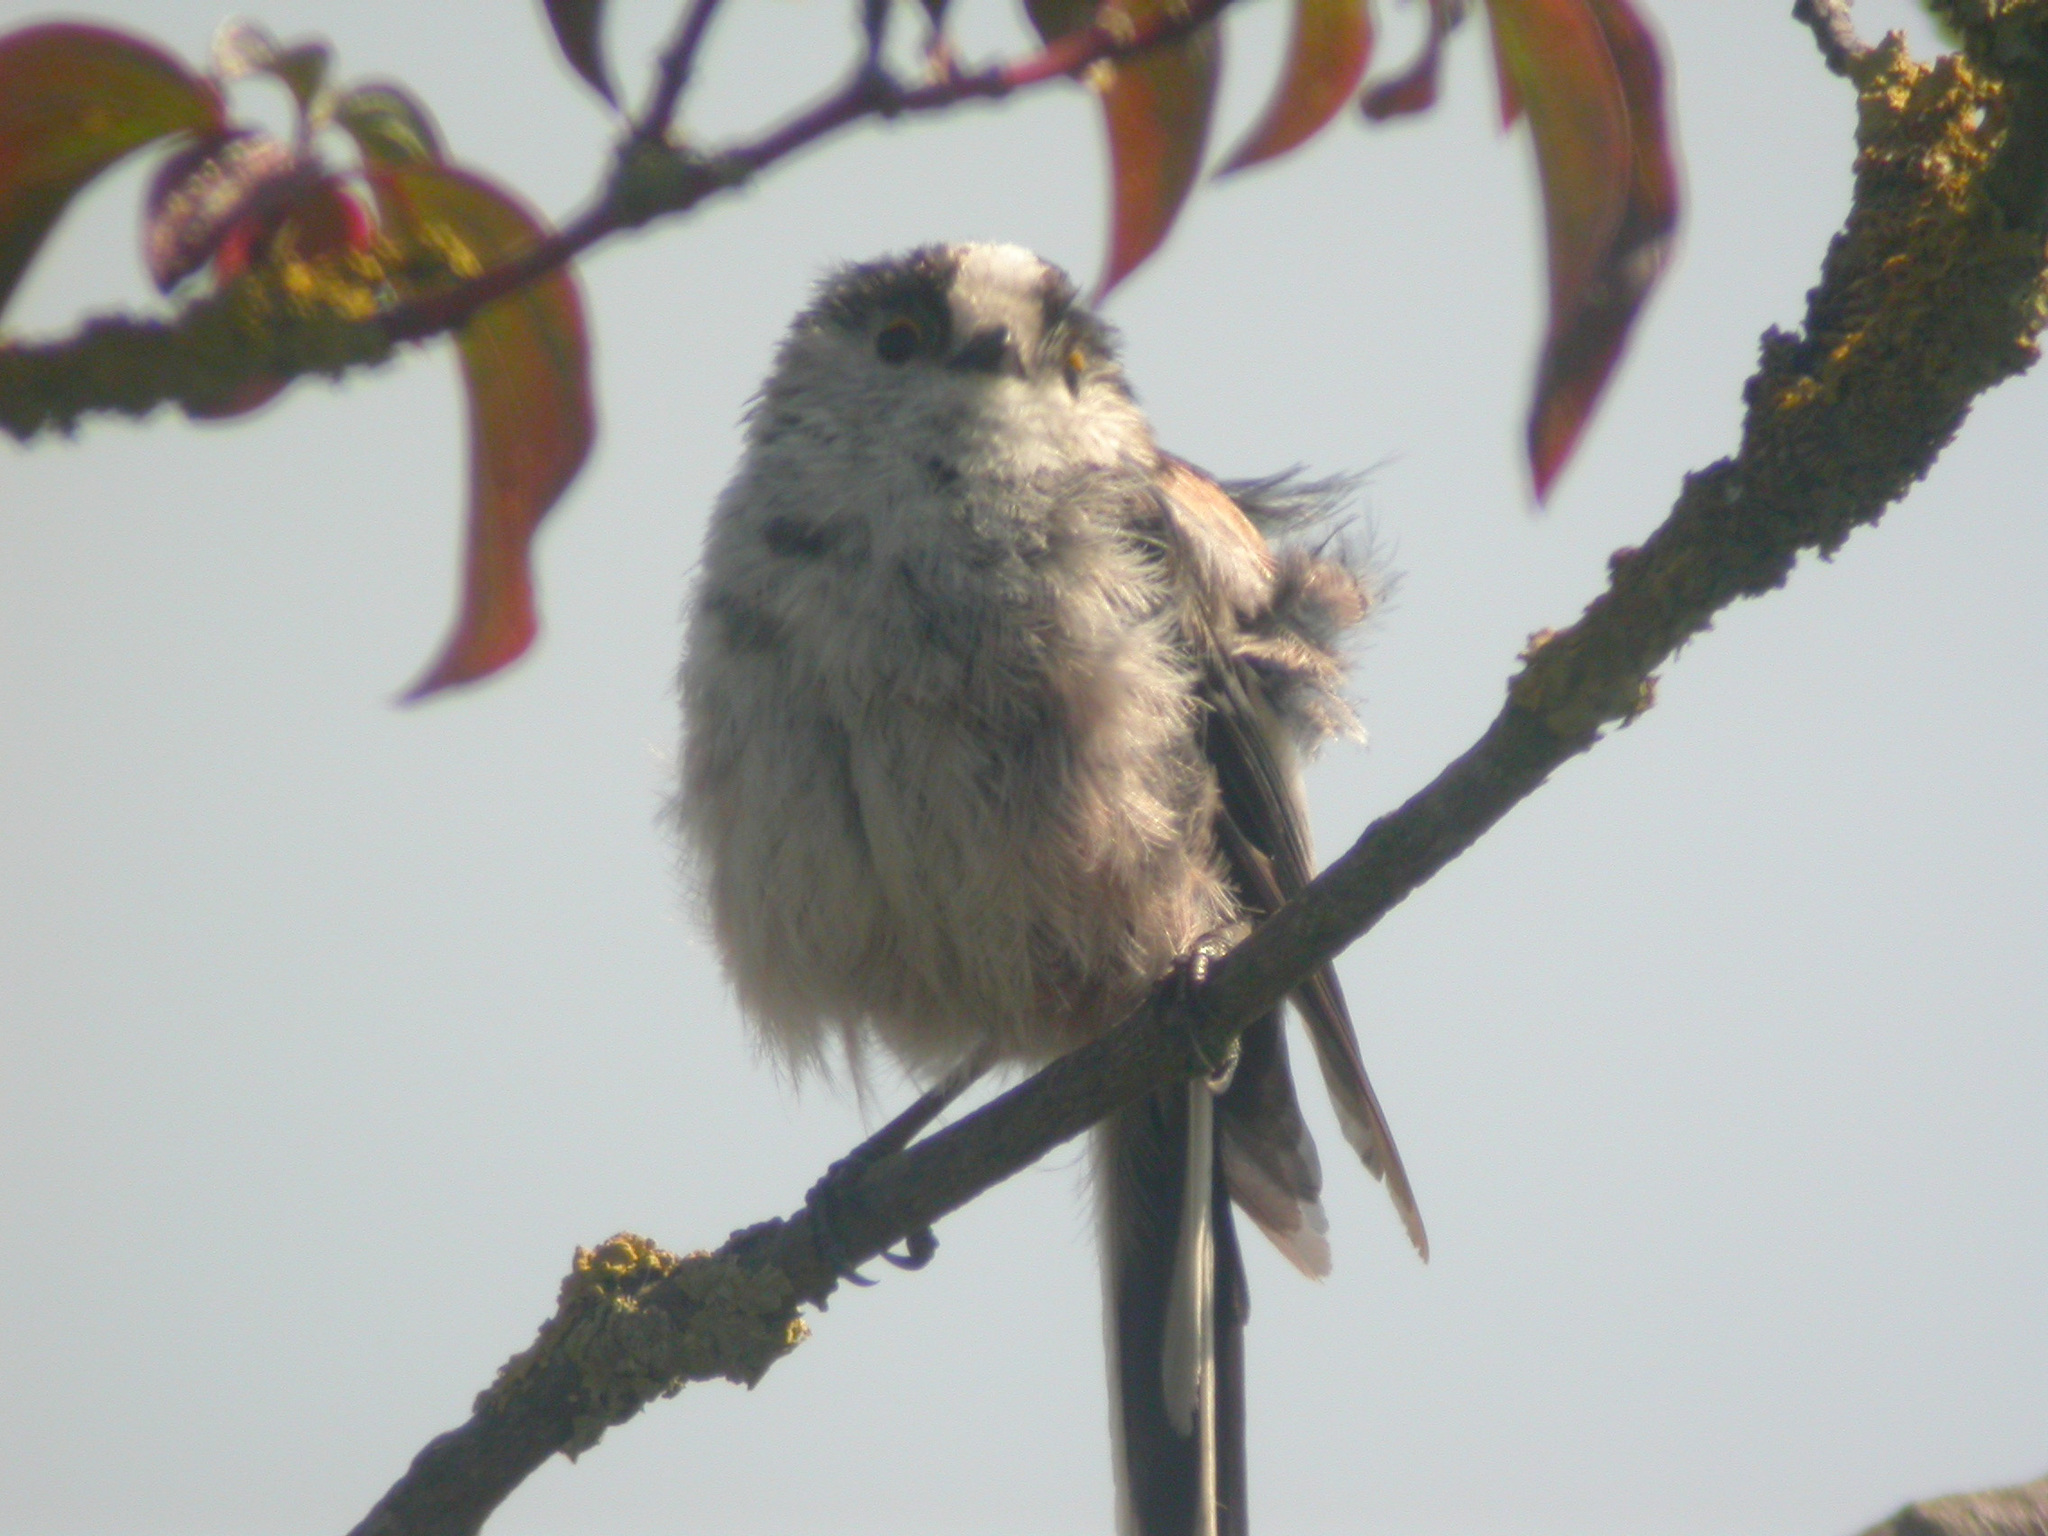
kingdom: Animalia
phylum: Chordata
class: Aves
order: Passeriformes
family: Aegithalidae
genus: Aegithalos
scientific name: Aegithalos caudatus
